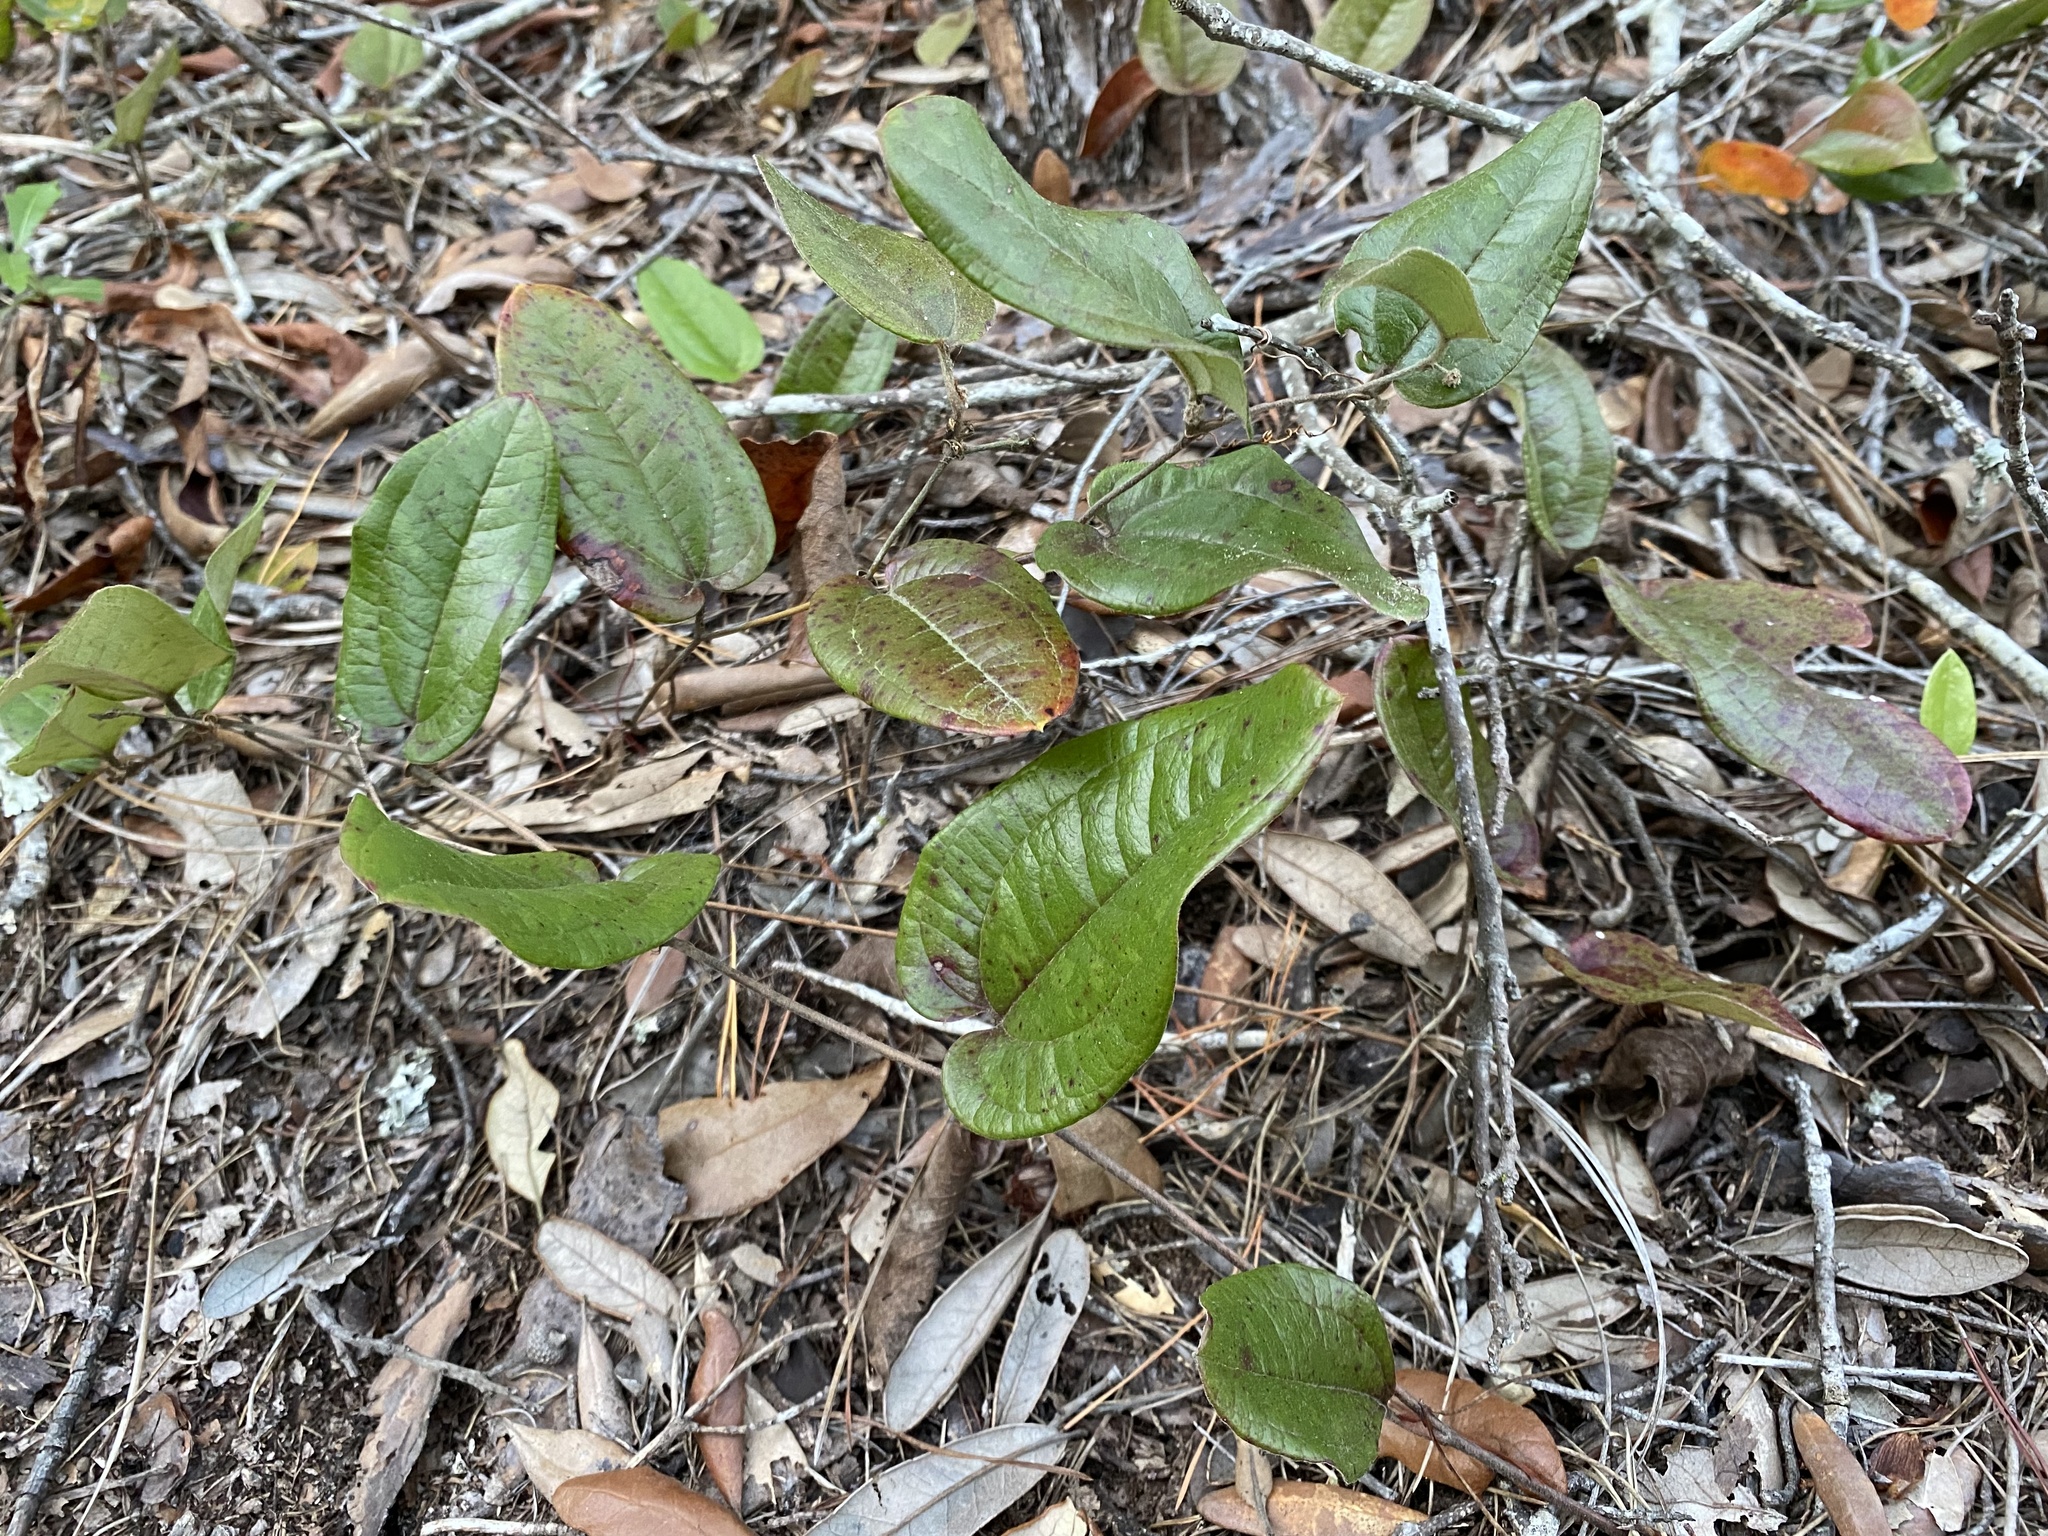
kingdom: Plantae
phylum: Tracheophyta
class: Liliopsida
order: Liliales
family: Smilacaceae
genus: Smilax
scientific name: Smilax pumila
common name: Sarsaparilla-vine
